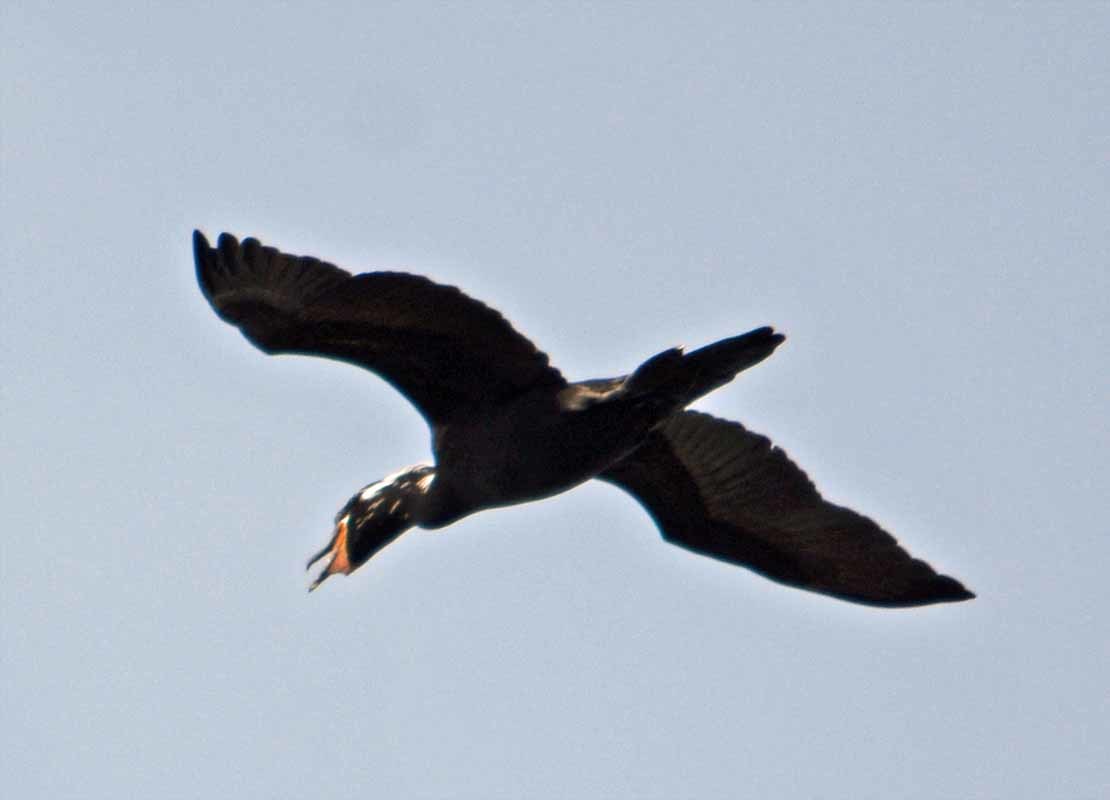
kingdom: Animalia
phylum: Chordata
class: Aves
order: Suliformes
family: Phalacrocoracidae
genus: Phalacrocorax
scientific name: Phalacrocorax brasilianus
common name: Neotropic cormorant
